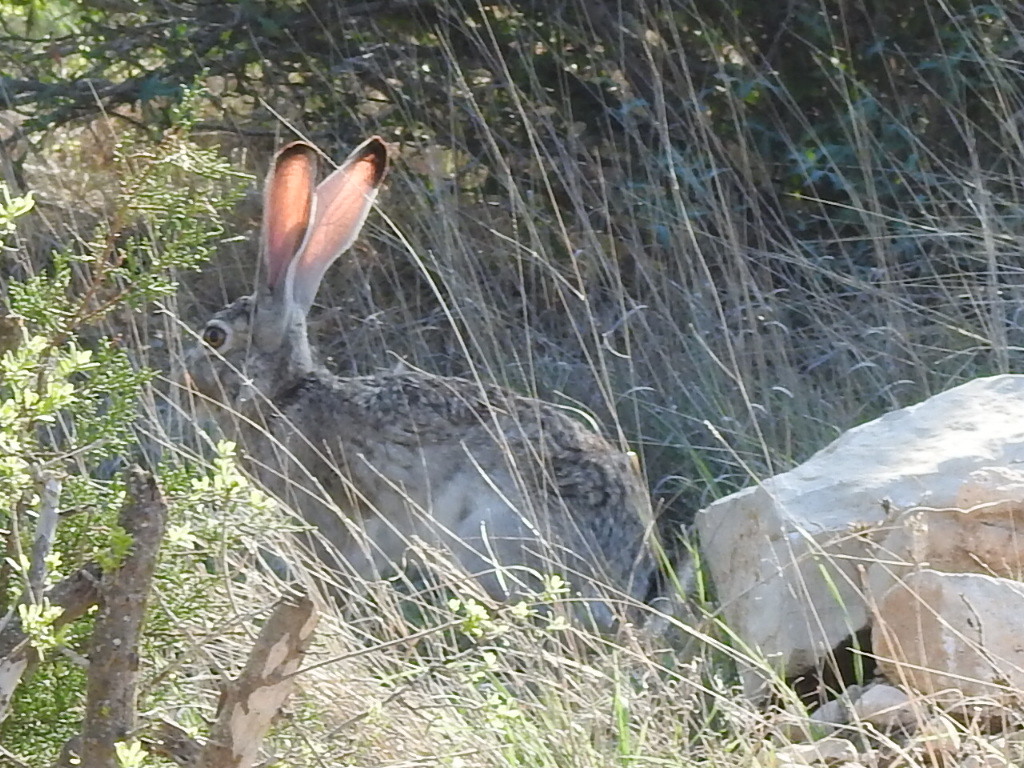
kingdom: Animalia
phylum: Chordata
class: Mammalia
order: Lagomorpha
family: Leporidae
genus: Lepus
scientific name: Lepus californicus
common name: Black-tailed jackrabbit
